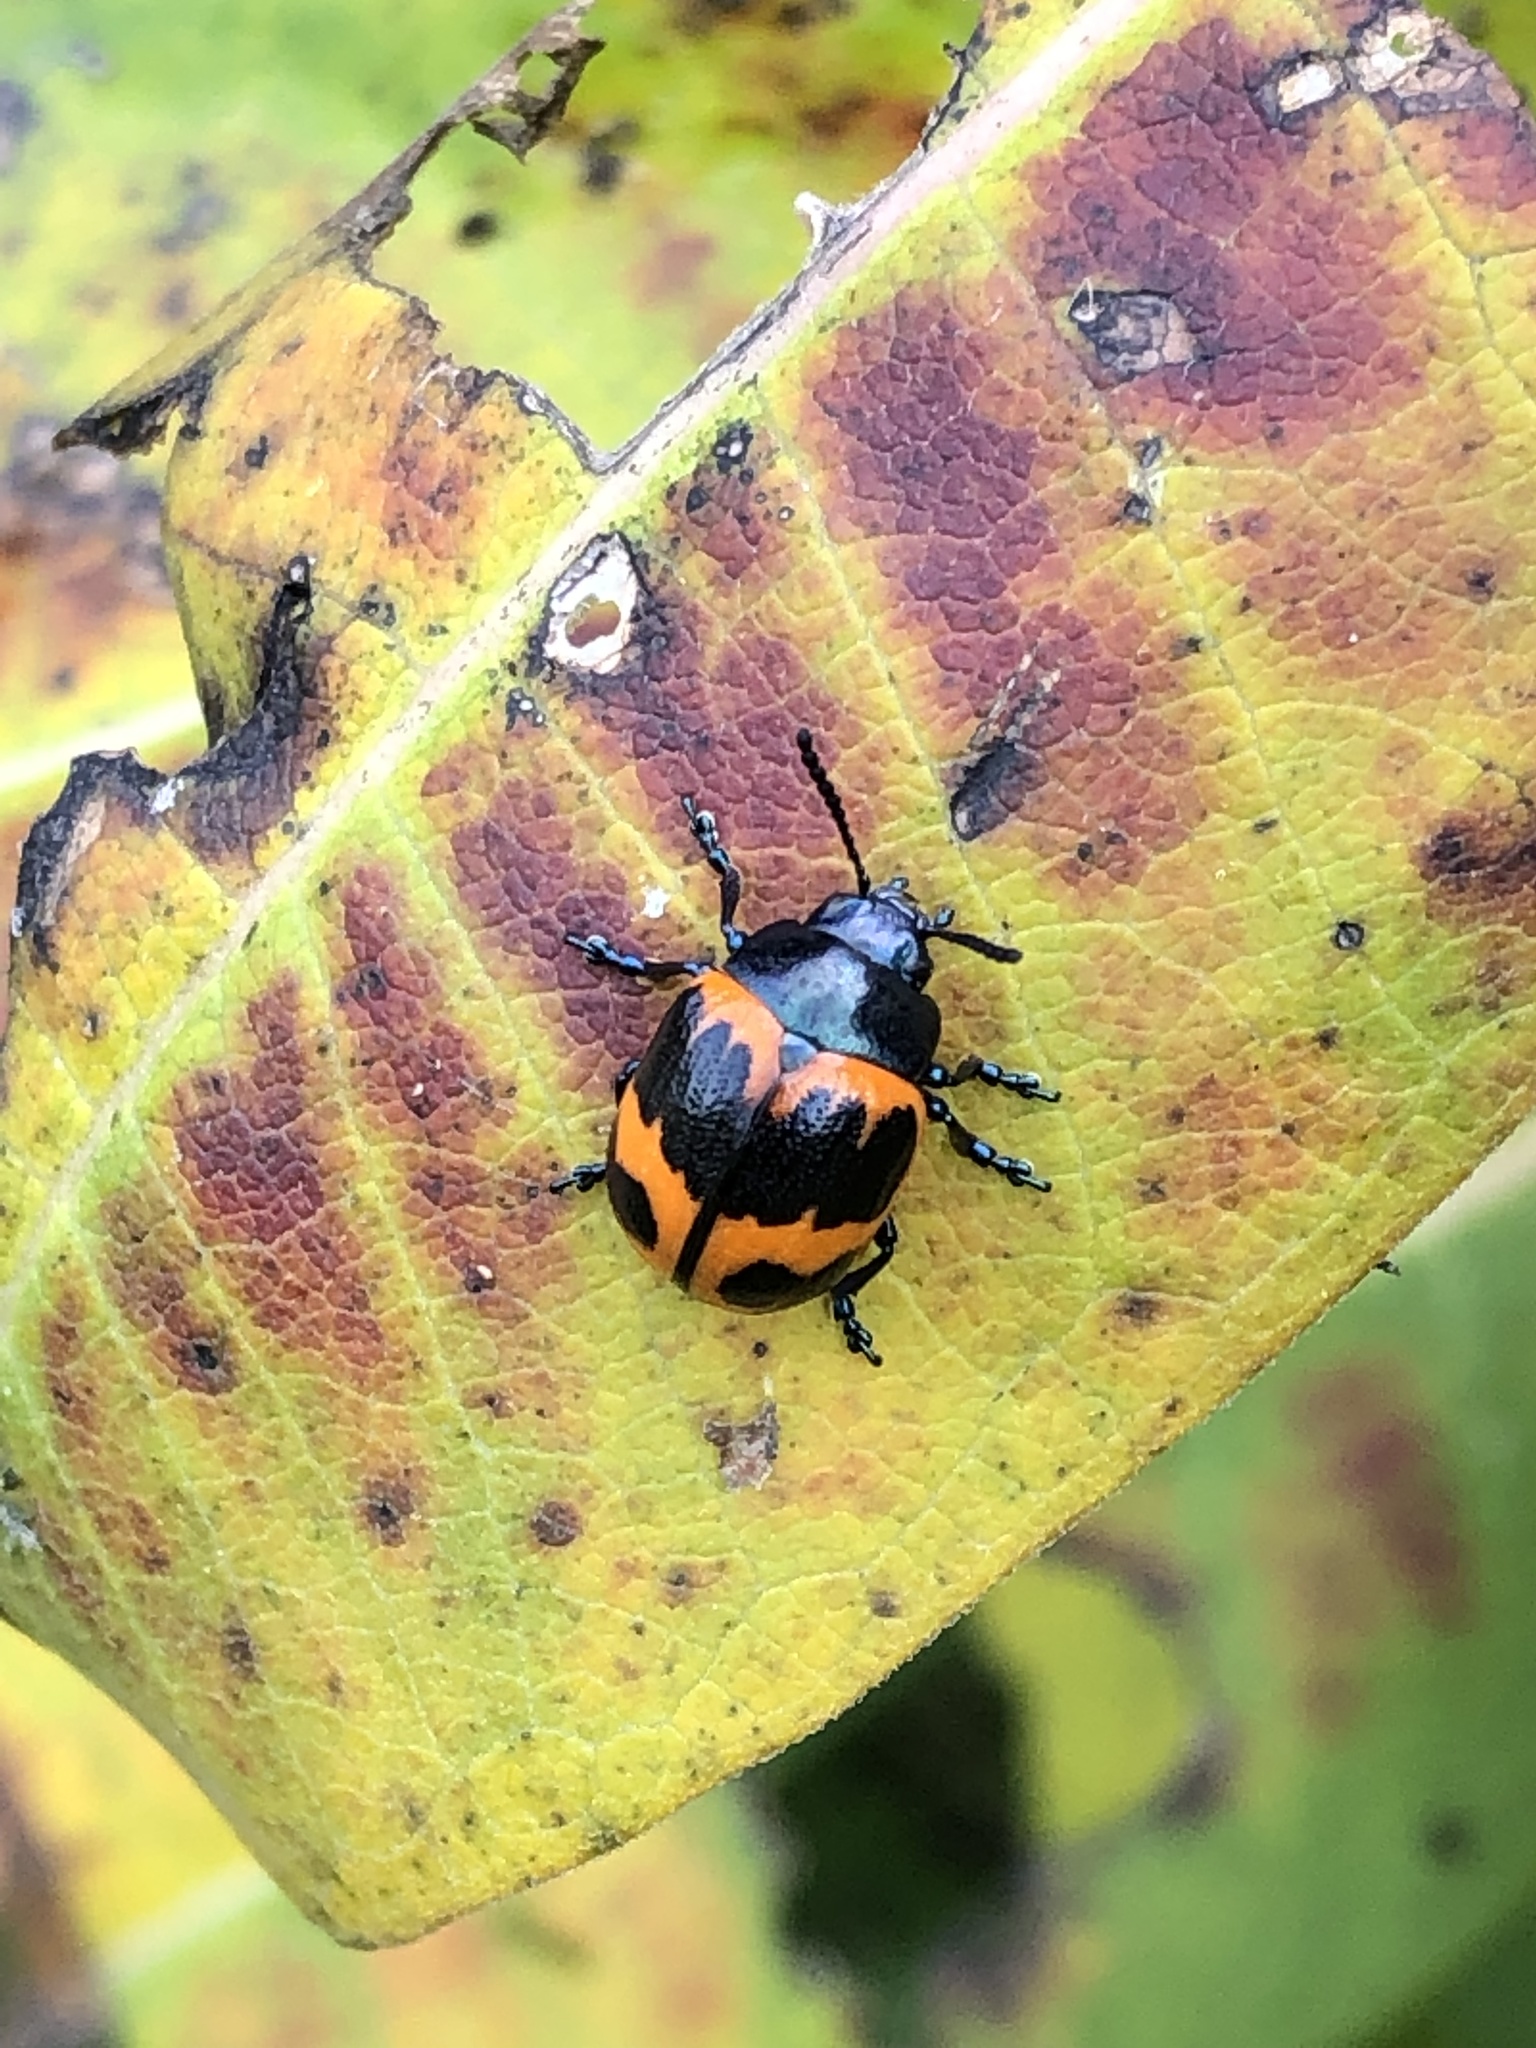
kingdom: Animalia
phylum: Arthropoda
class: Insecta
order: Coleoptera
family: Chrysomelidae
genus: Labidomera
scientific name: Labidomera clivicollis
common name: Swamp milkweed leaf beetle
